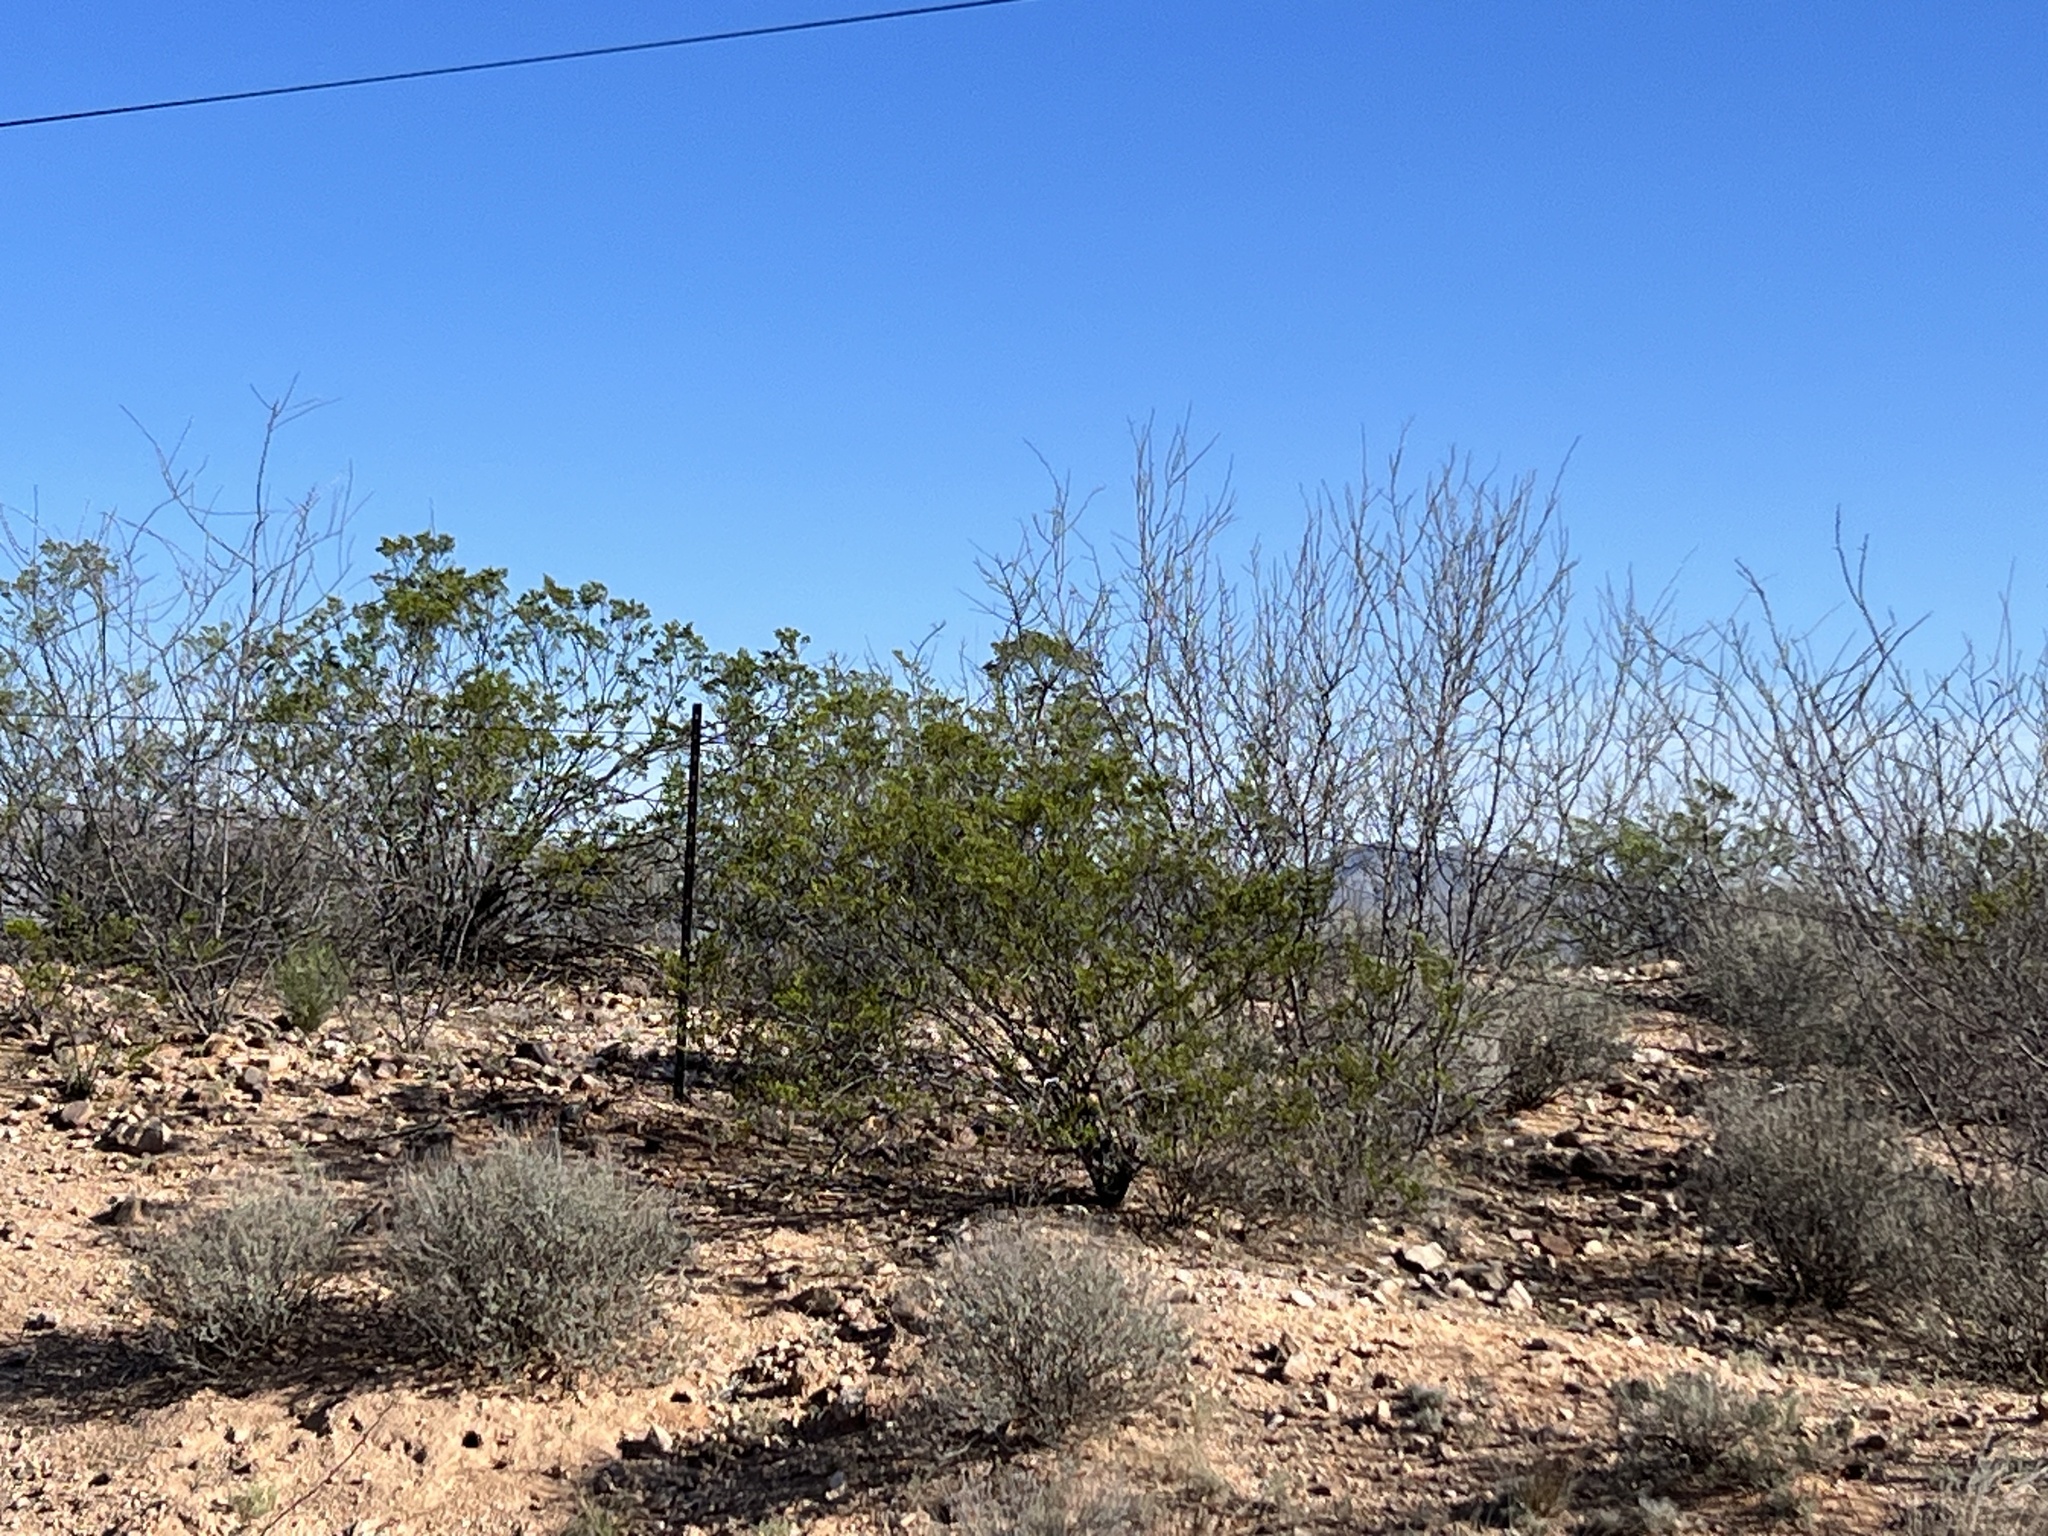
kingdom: Plantae
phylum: Tracheophyta
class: Magnoliopsida
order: Zygophyllales
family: Zygophyllaceae
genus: Larrea
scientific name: Larrea tridentata
